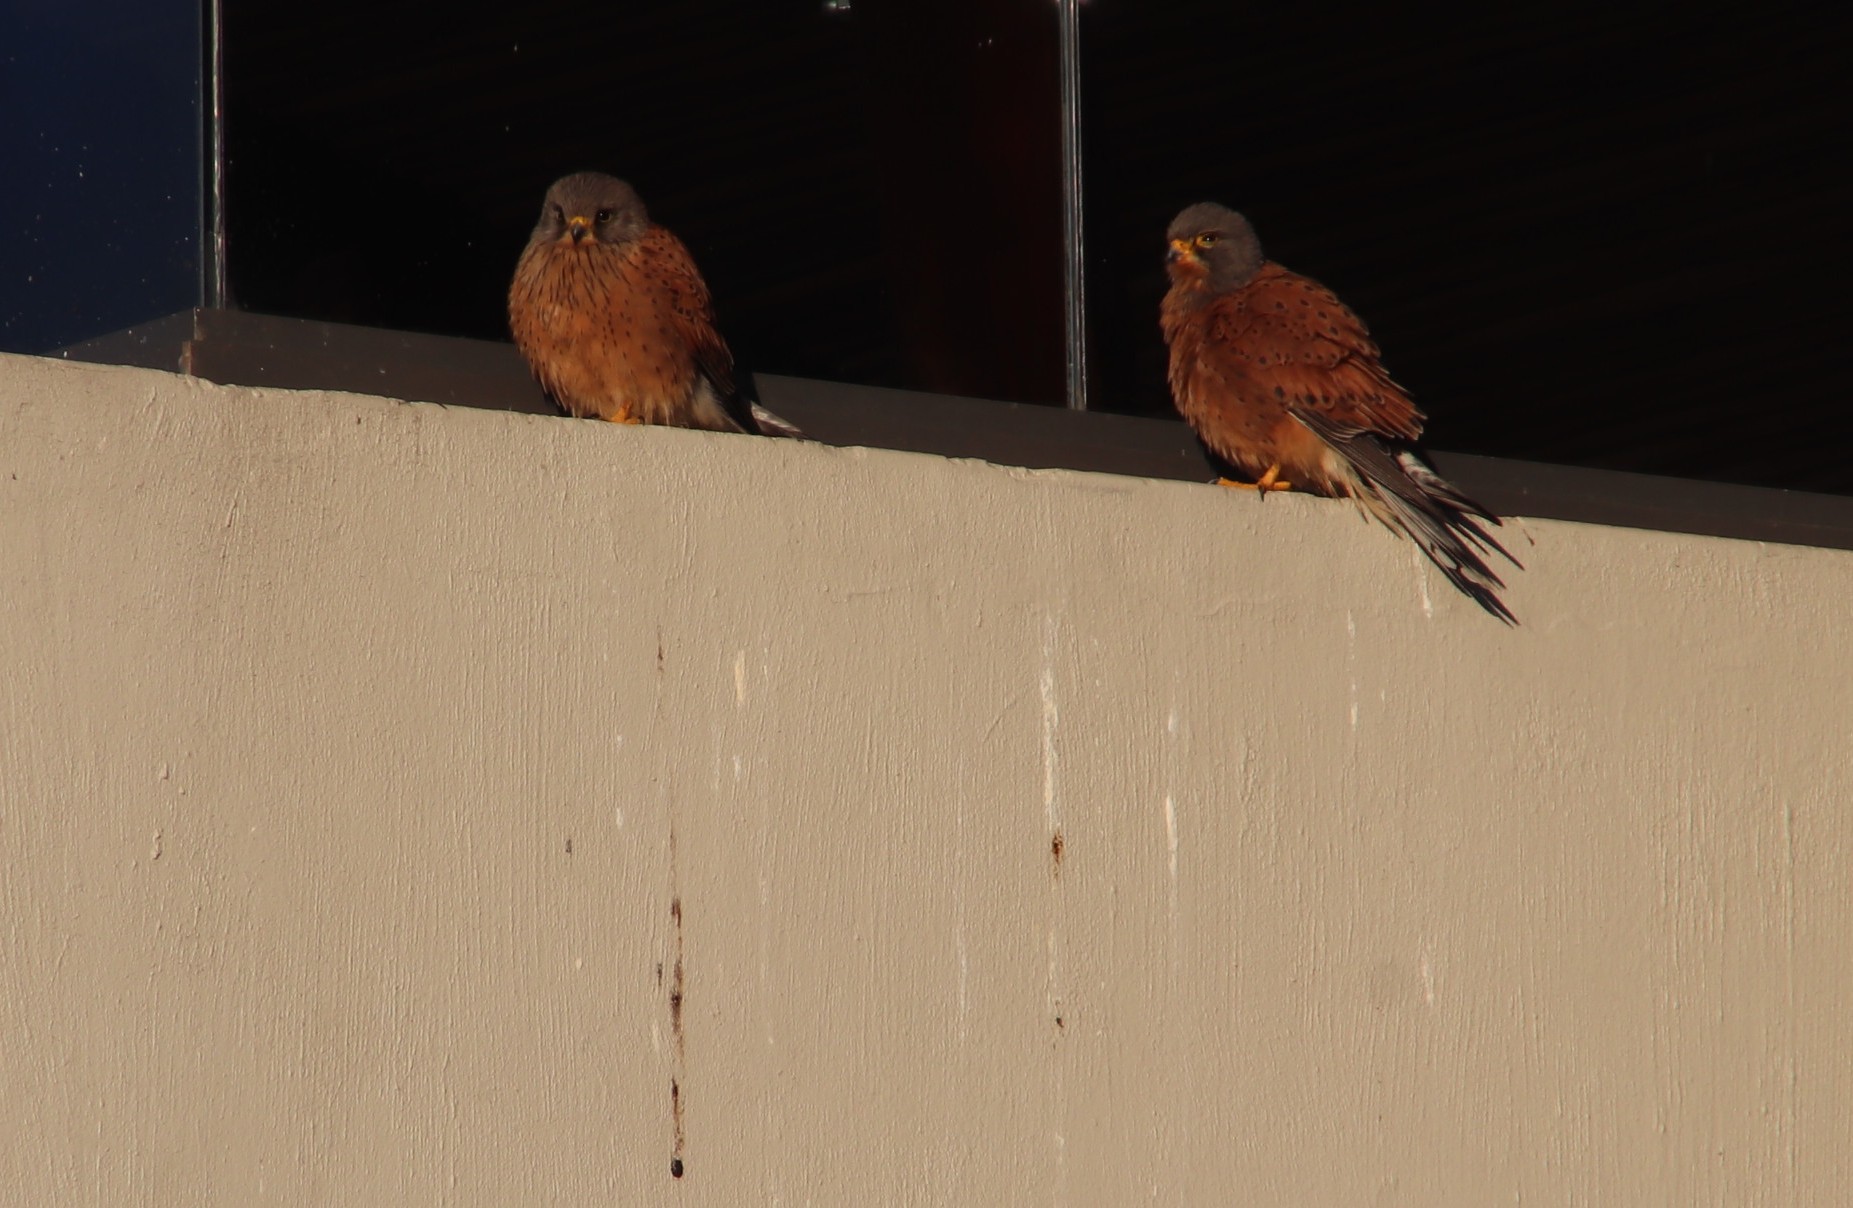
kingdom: Animalia
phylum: Chordata
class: Aves
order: Falconiformes
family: Falconidae
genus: Falco
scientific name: Falco rupicolus
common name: Rock kestrel
